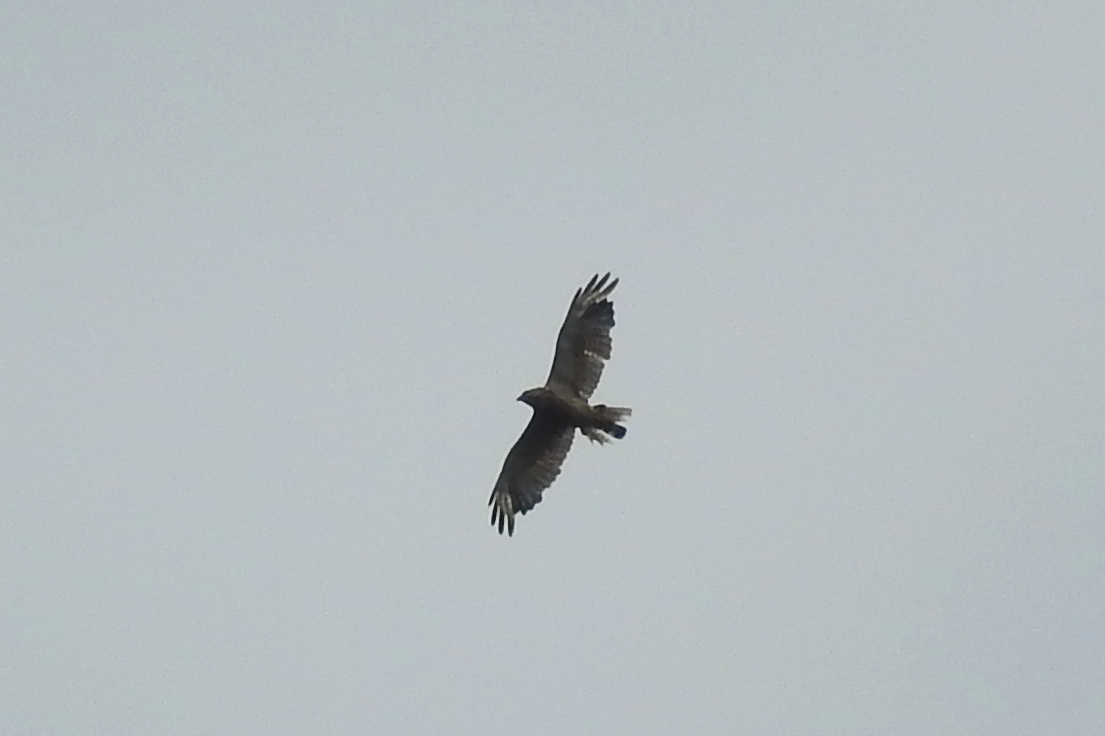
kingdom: Animalia
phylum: Chordata
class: Aves
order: Accipitriformes
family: Accipitridae
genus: Buteo
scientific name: Buteo platypterus
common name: Broad-winged hawk
